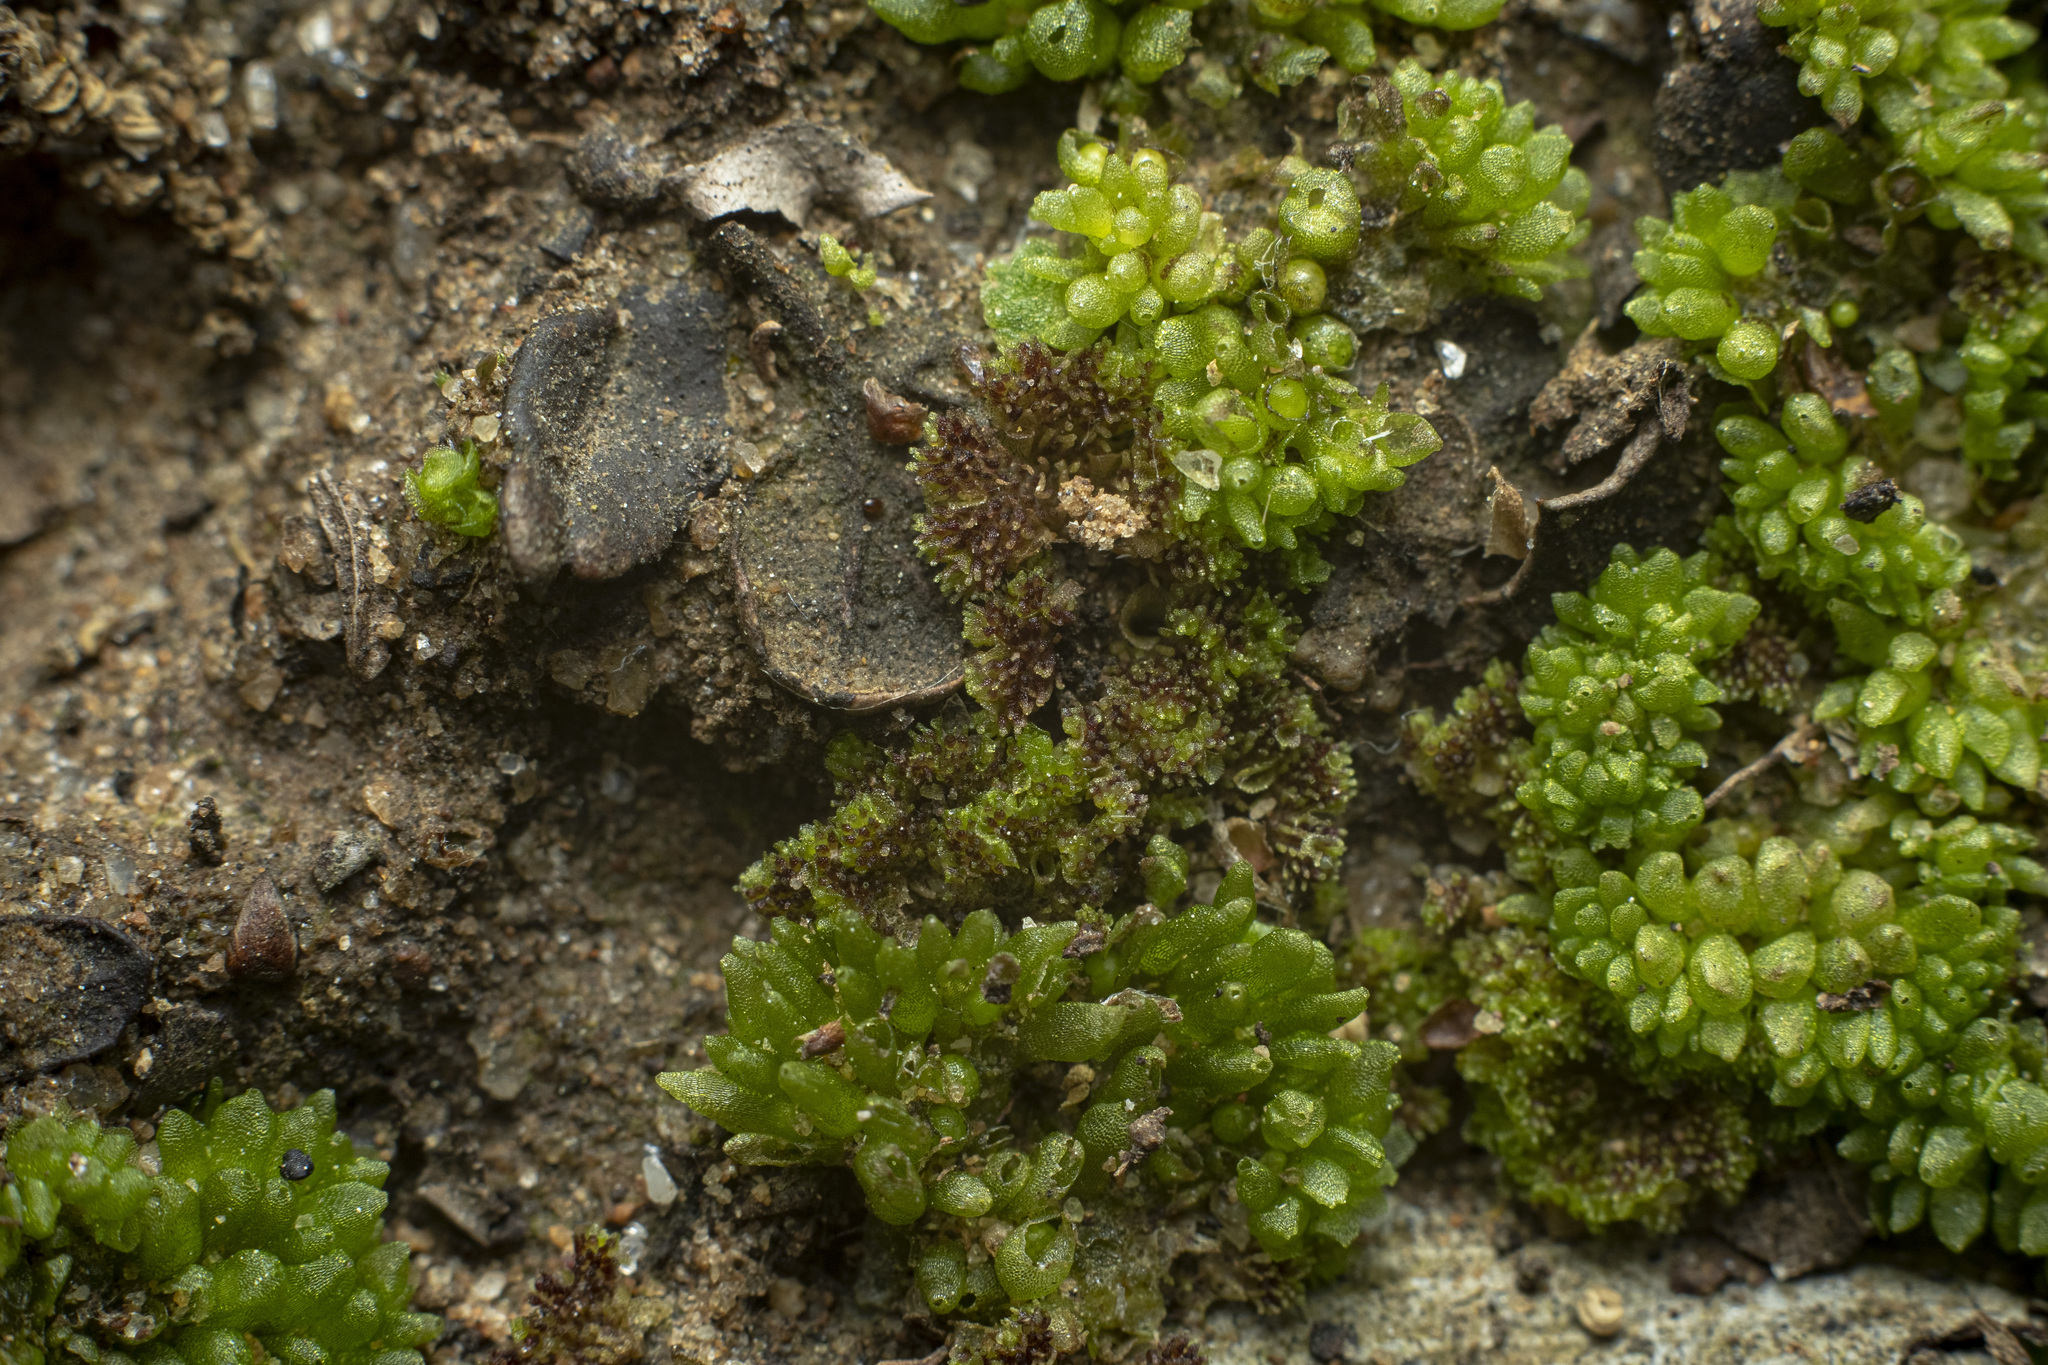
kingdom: Plantae
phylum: Marchantiophyta
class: Marchantiopsida
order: Sphaerocarpales
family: Sphaerocarpaceae
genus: Sphaerocarpos
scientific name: Sphaerocarpos
